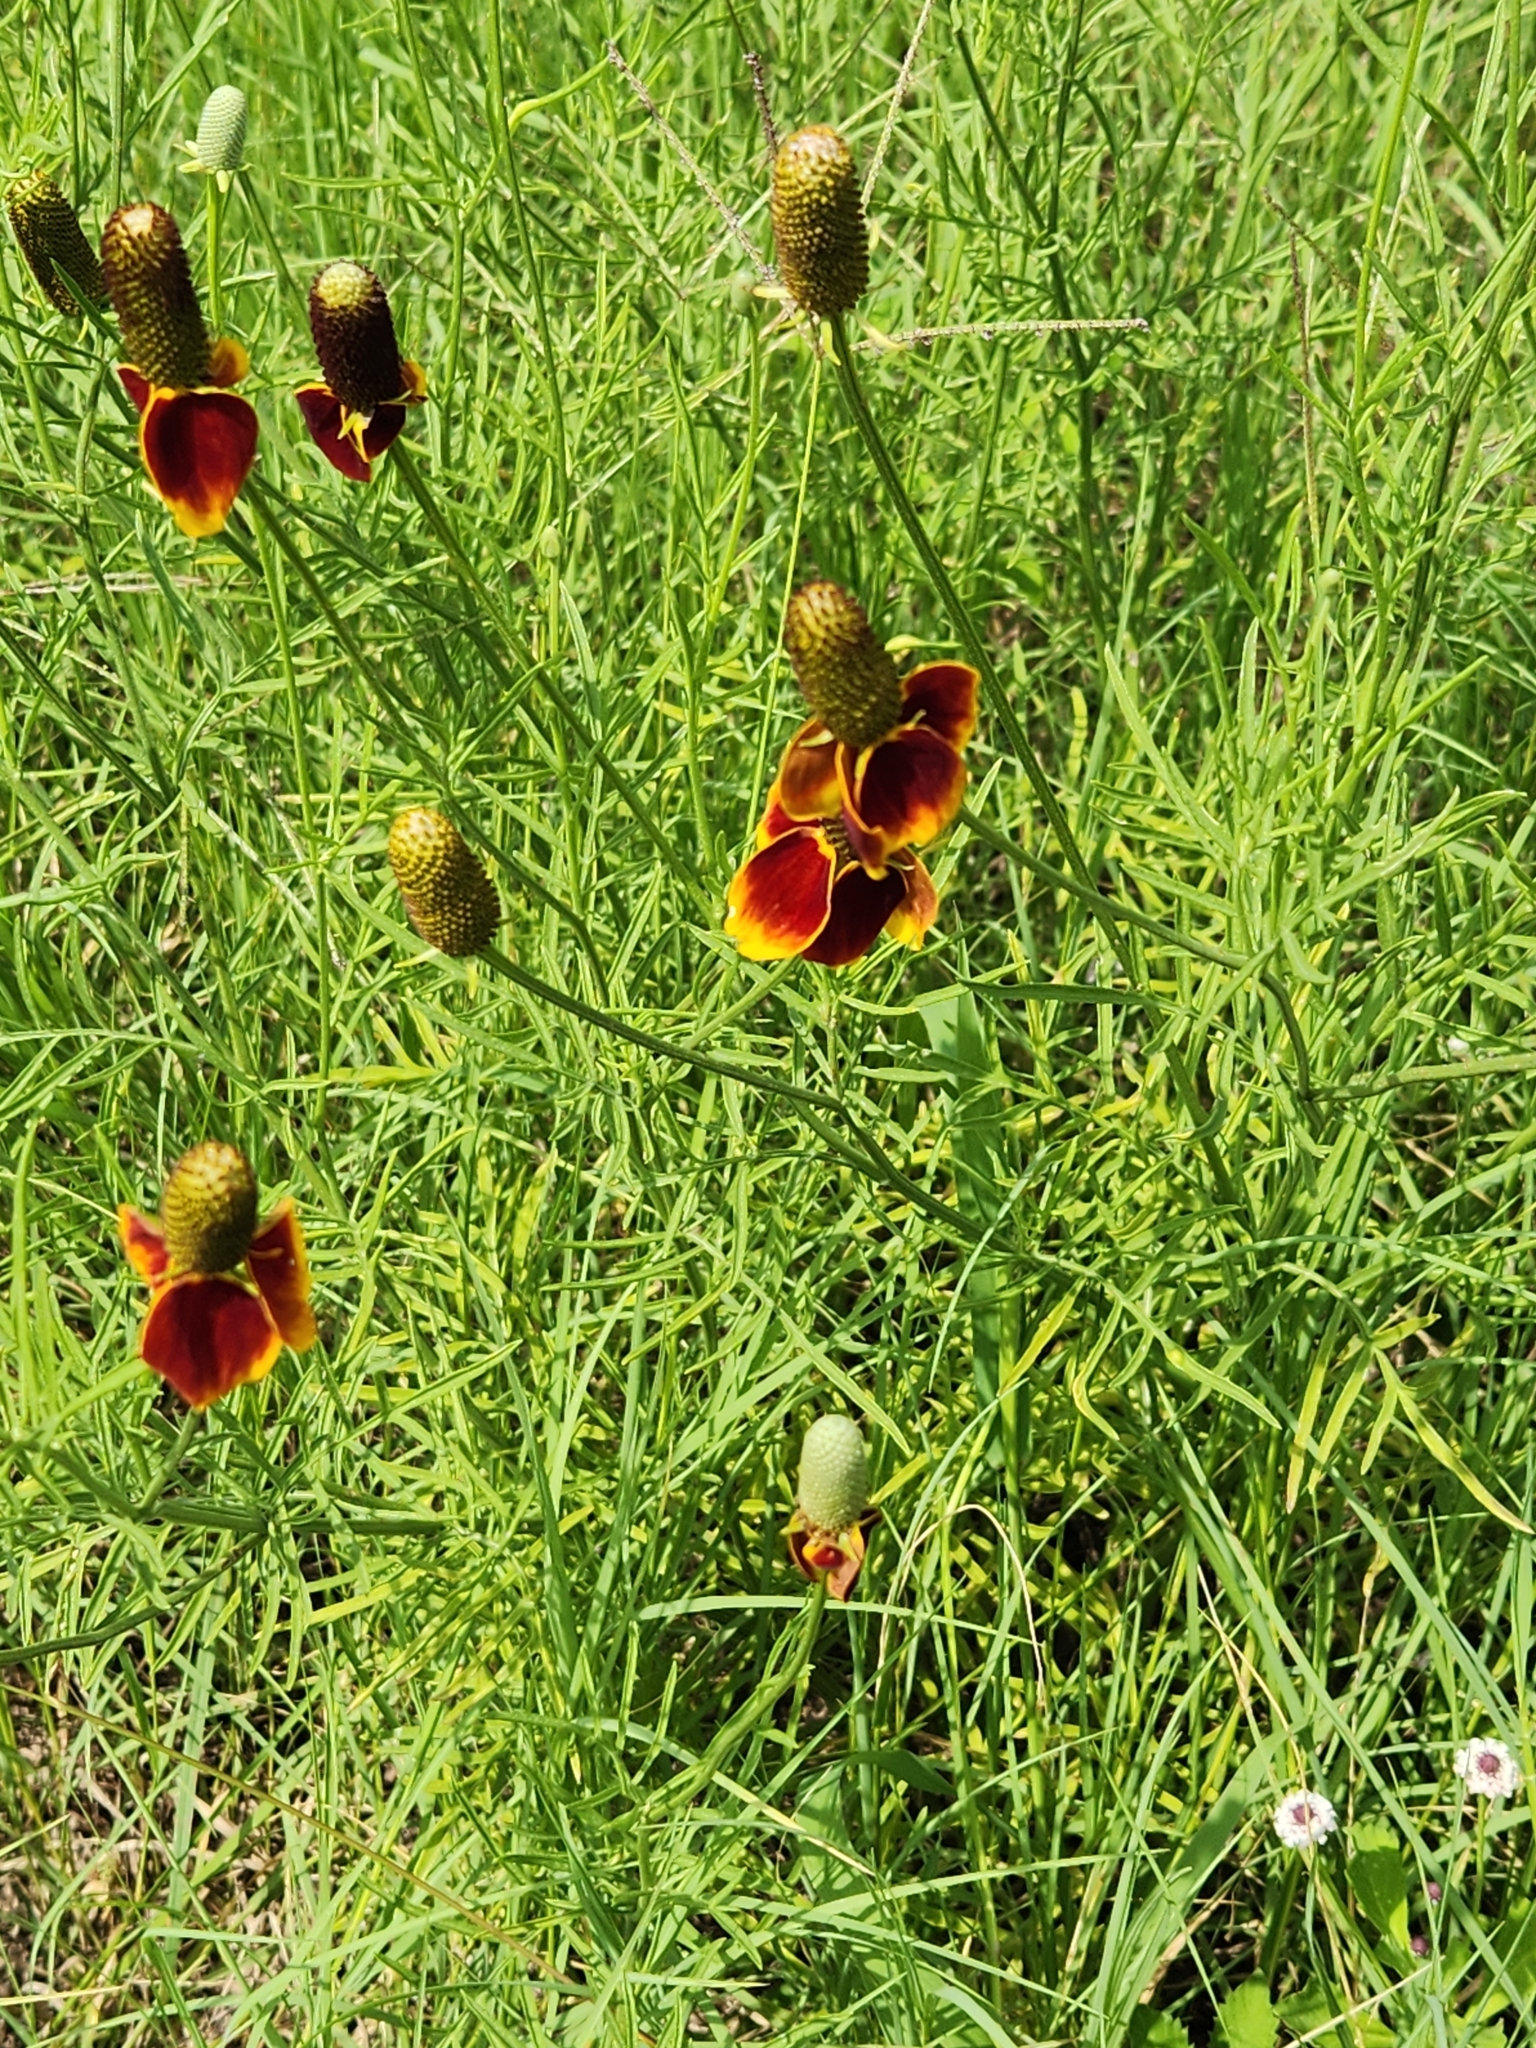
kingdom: Plantae
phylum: Tracheophyta
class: Magnoliopsida
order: Asterales
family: Asteraceae
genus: Ratibida
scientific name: Ratibida columnifera
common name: Prairie coneflower
